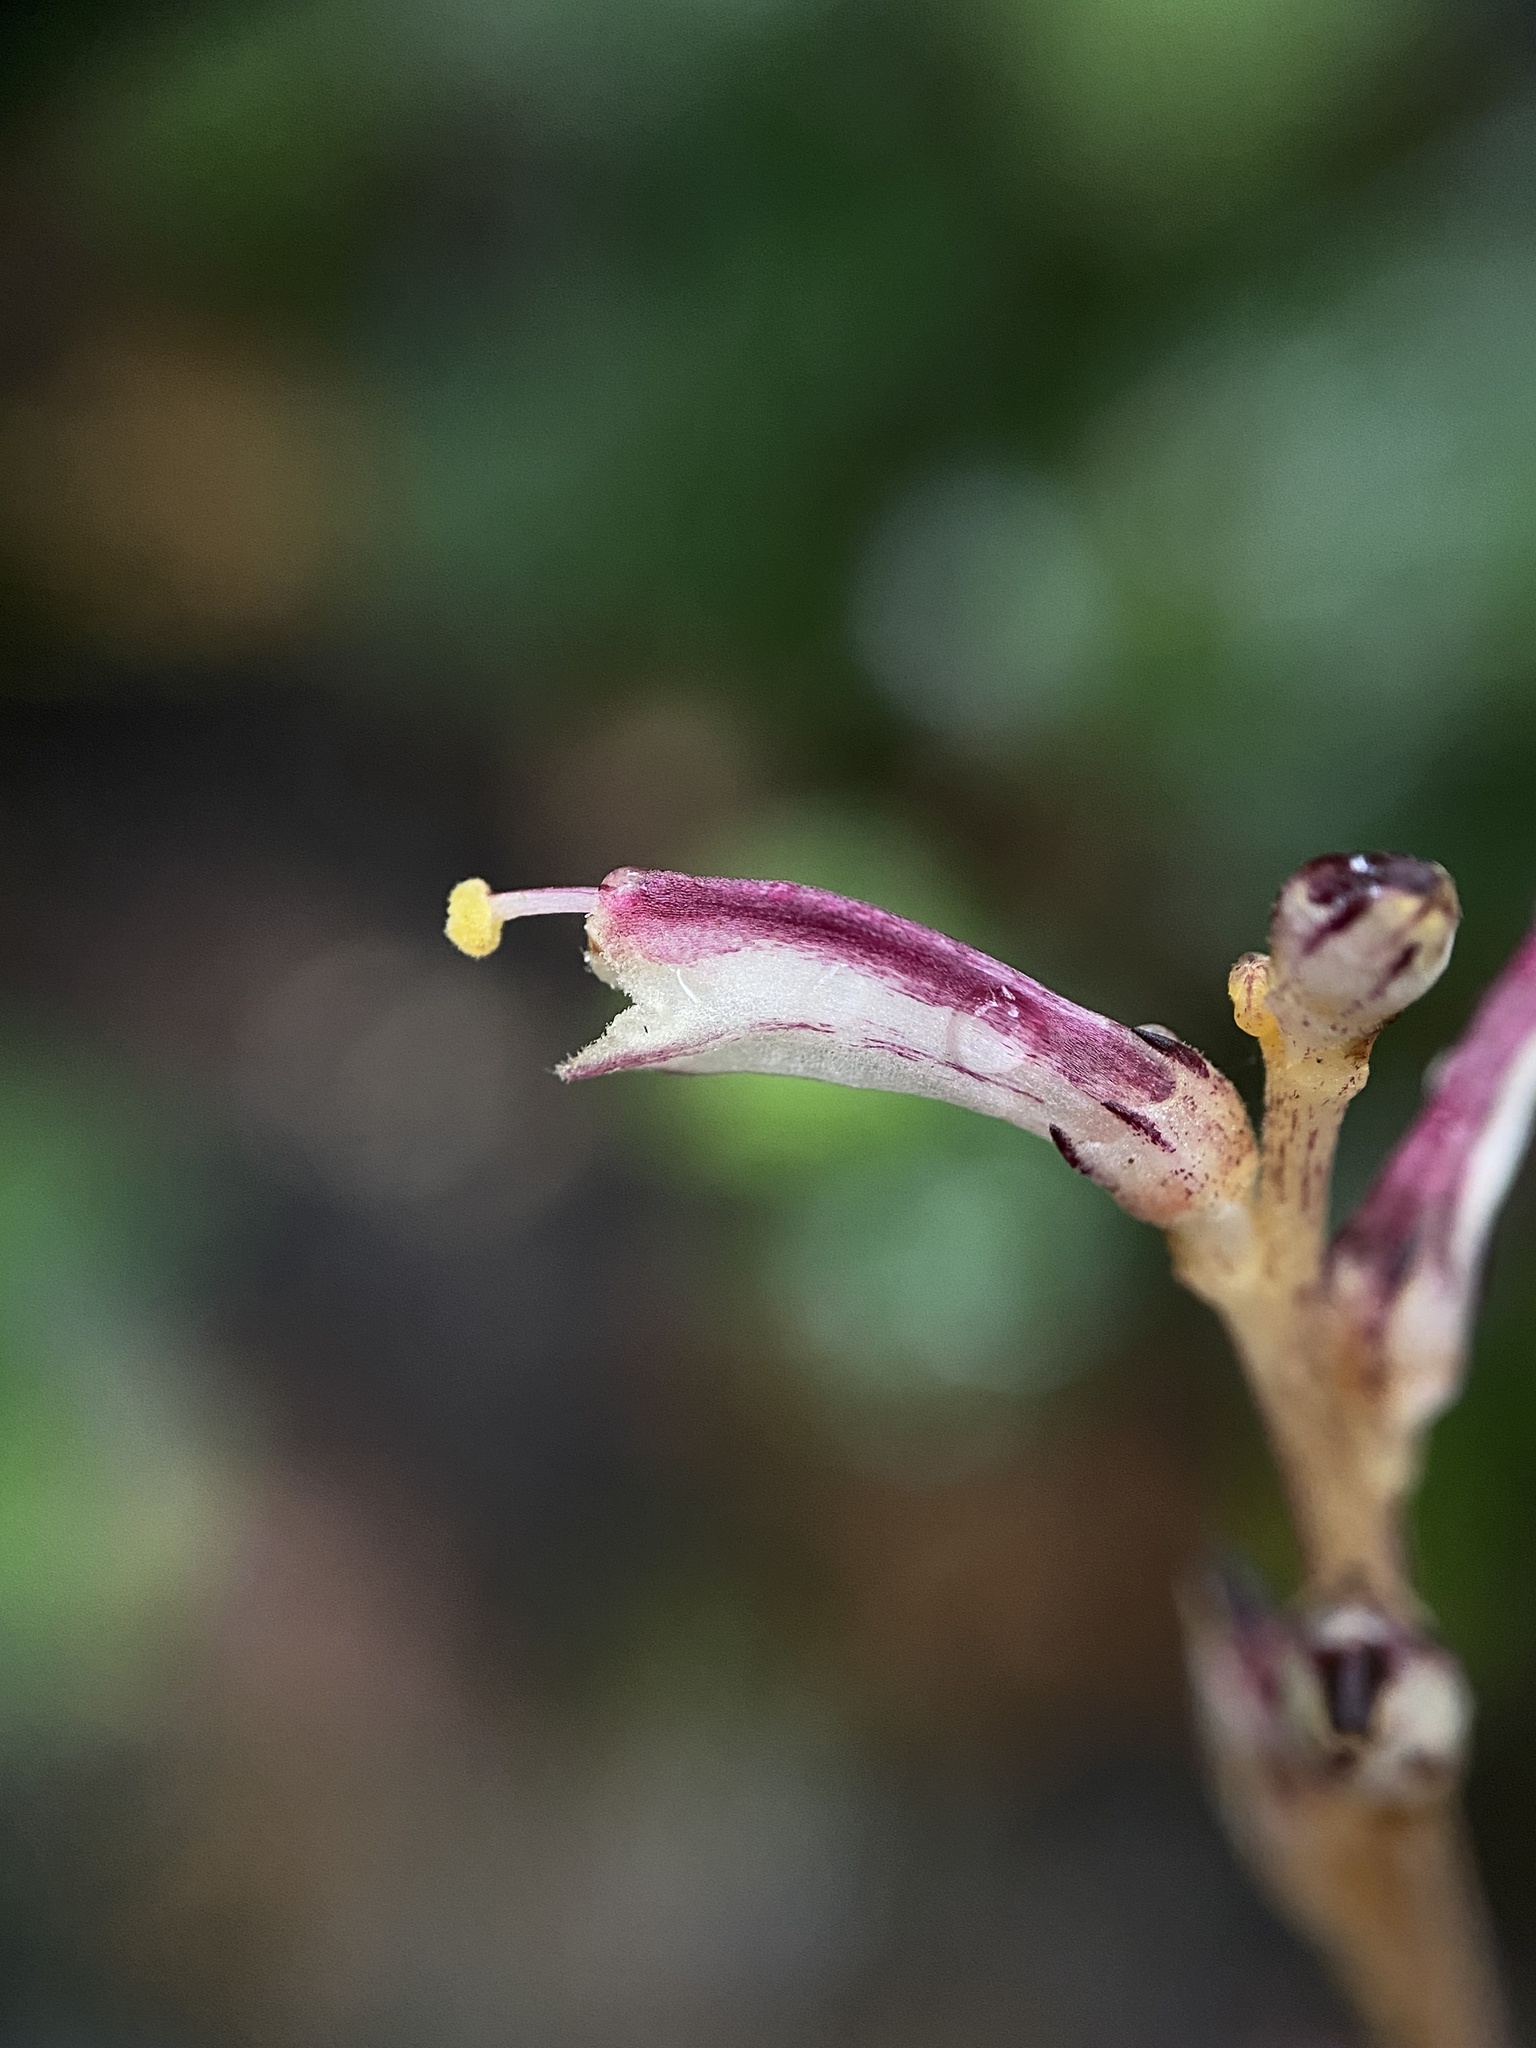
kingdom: Plantae
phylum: Tracheophyta
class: Magnoliopsida
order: Lamiales
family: Orobanchaceae
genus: Epifagus
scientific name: Epifagus virginiana
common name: Beechdrops
